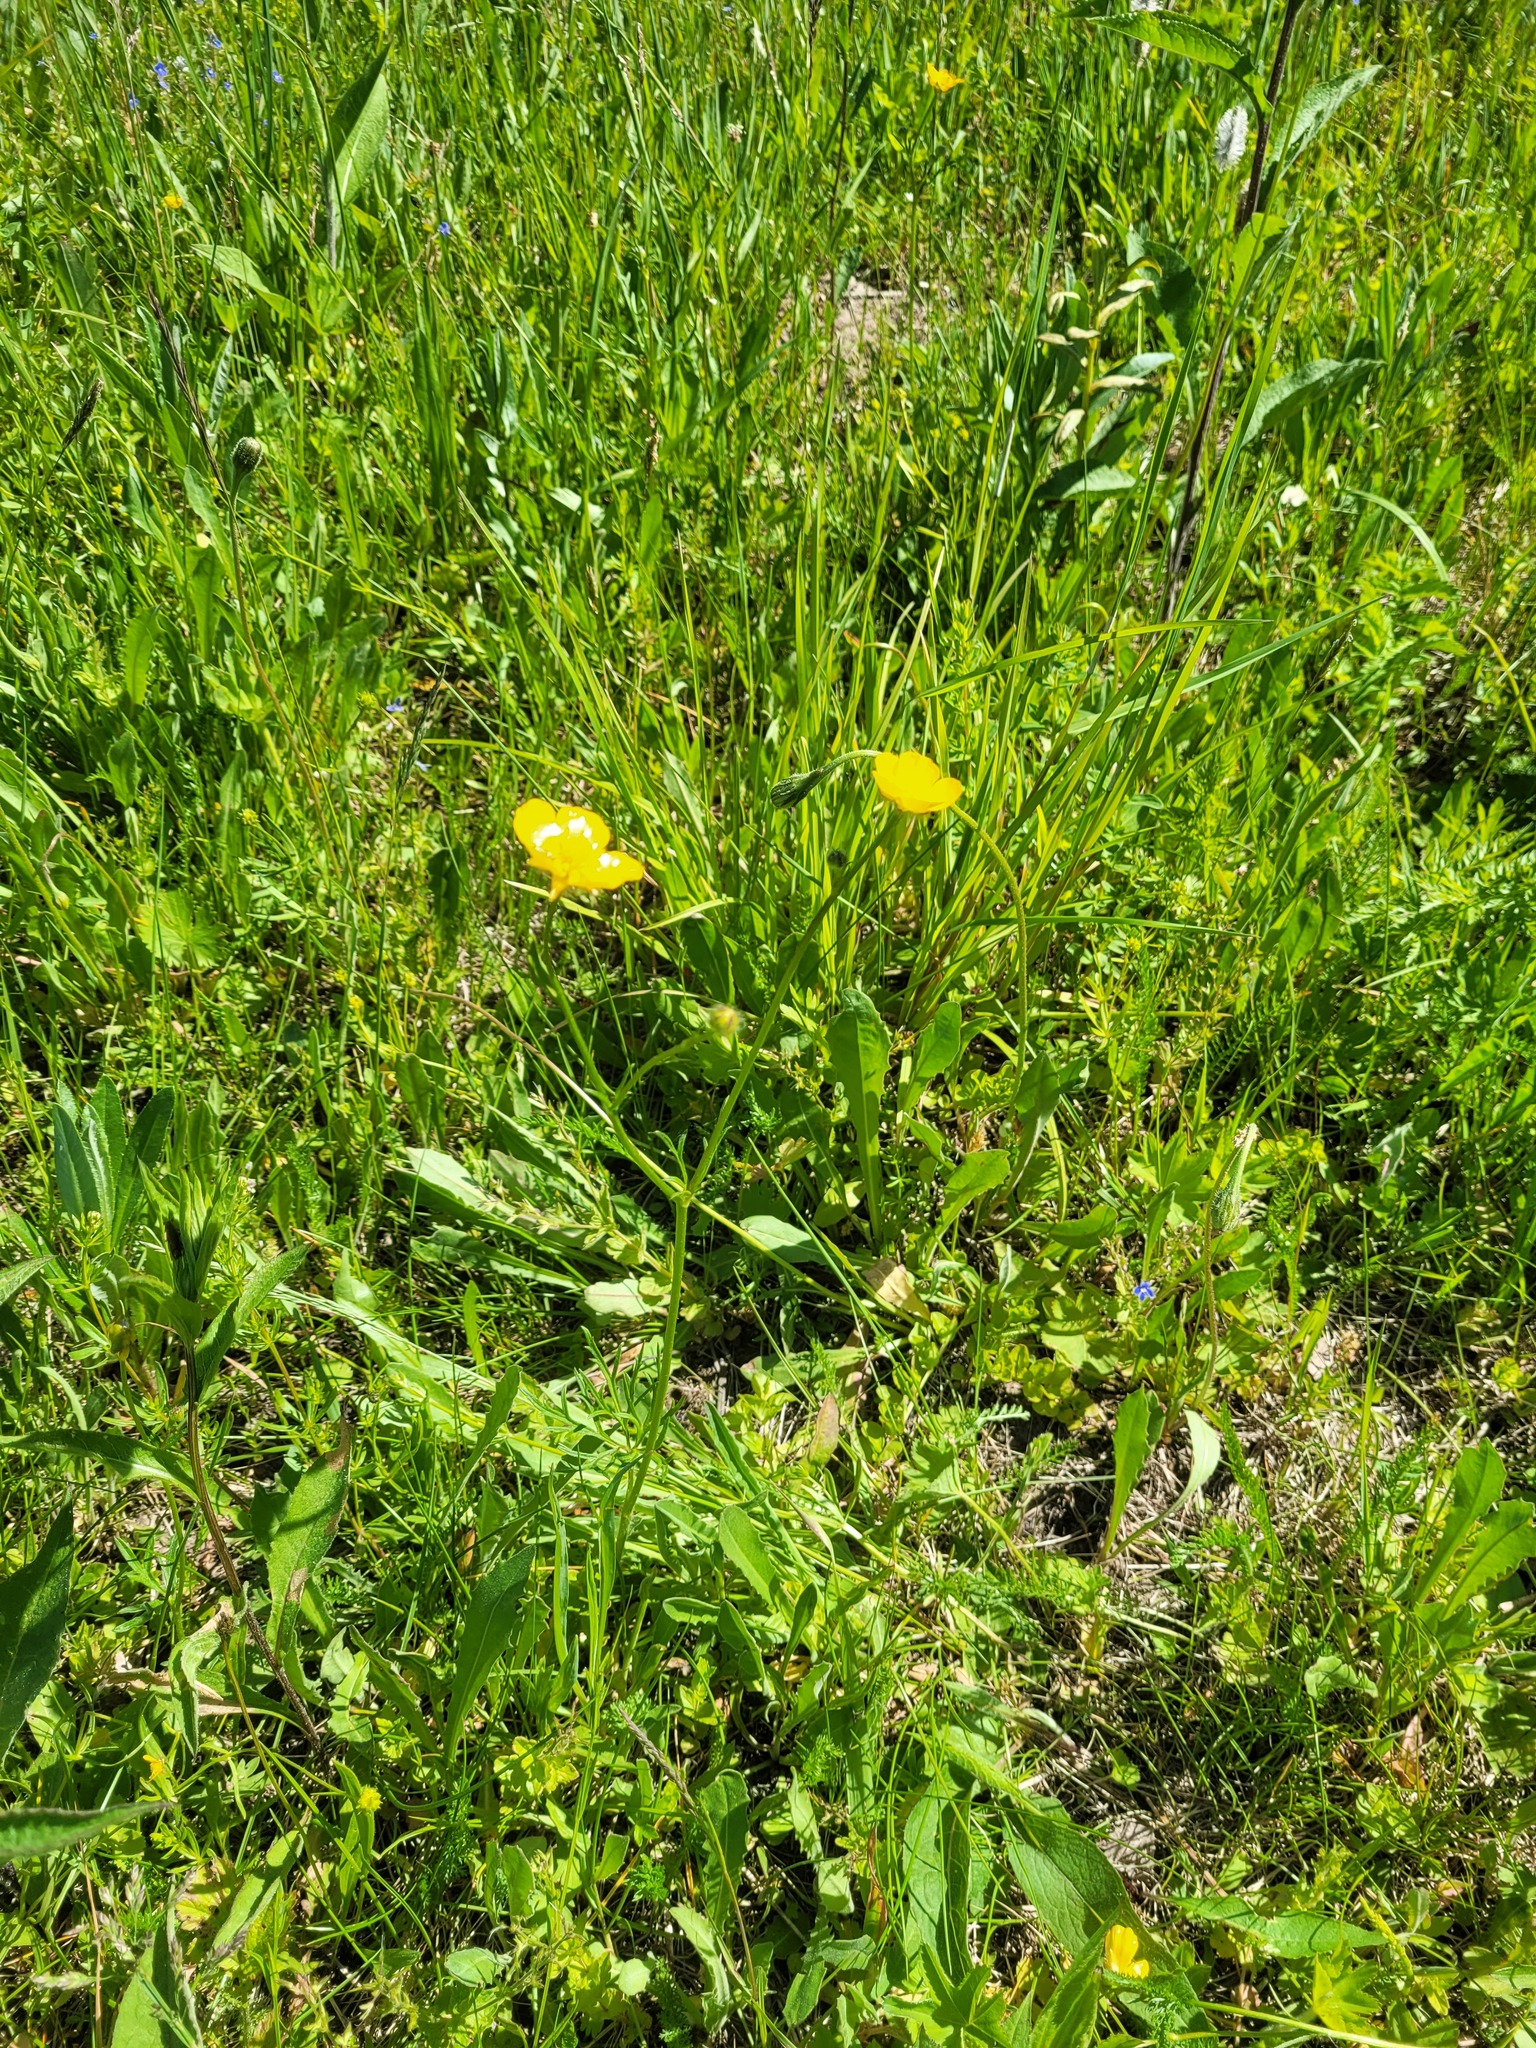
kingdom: Plantae
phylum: Tracheophyta
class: Magnoliopsida
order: Ranunculales
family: Ranunculaceae
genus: Ranunculus
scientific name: Ranunculus polyanthemos
